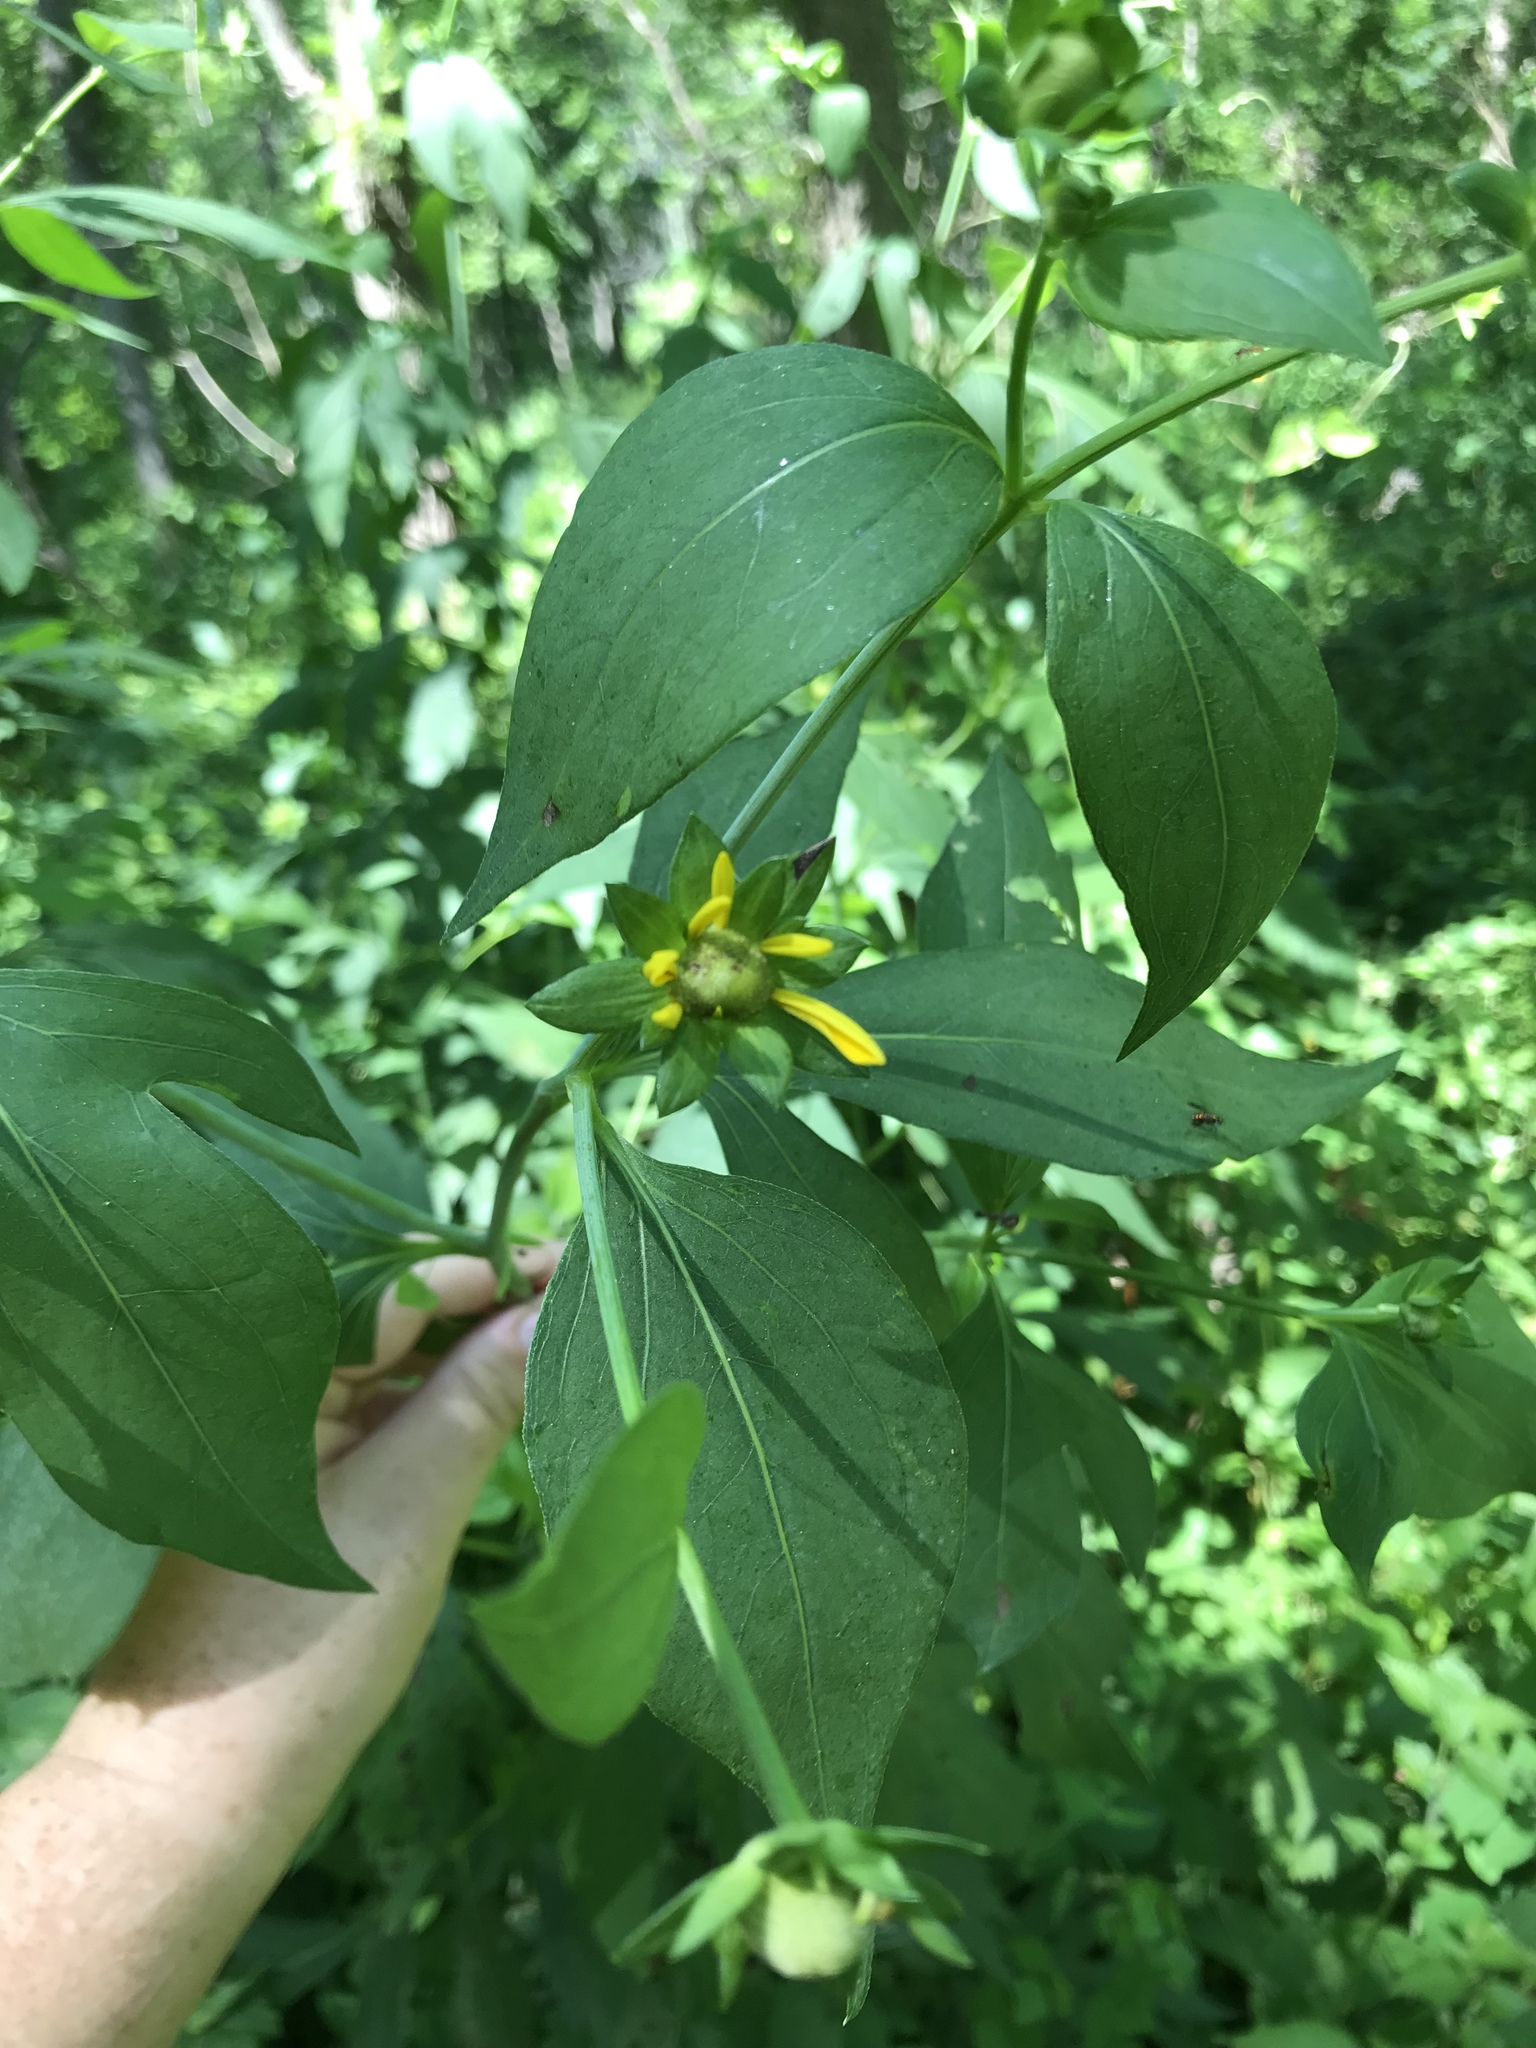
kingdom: Plantae
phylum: Tracheophyta
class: Magnoliopsida
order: Asterales
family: Asteraceae
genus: Rudbeckia
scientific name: Rudbeckia laciniata
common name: Coneflower
